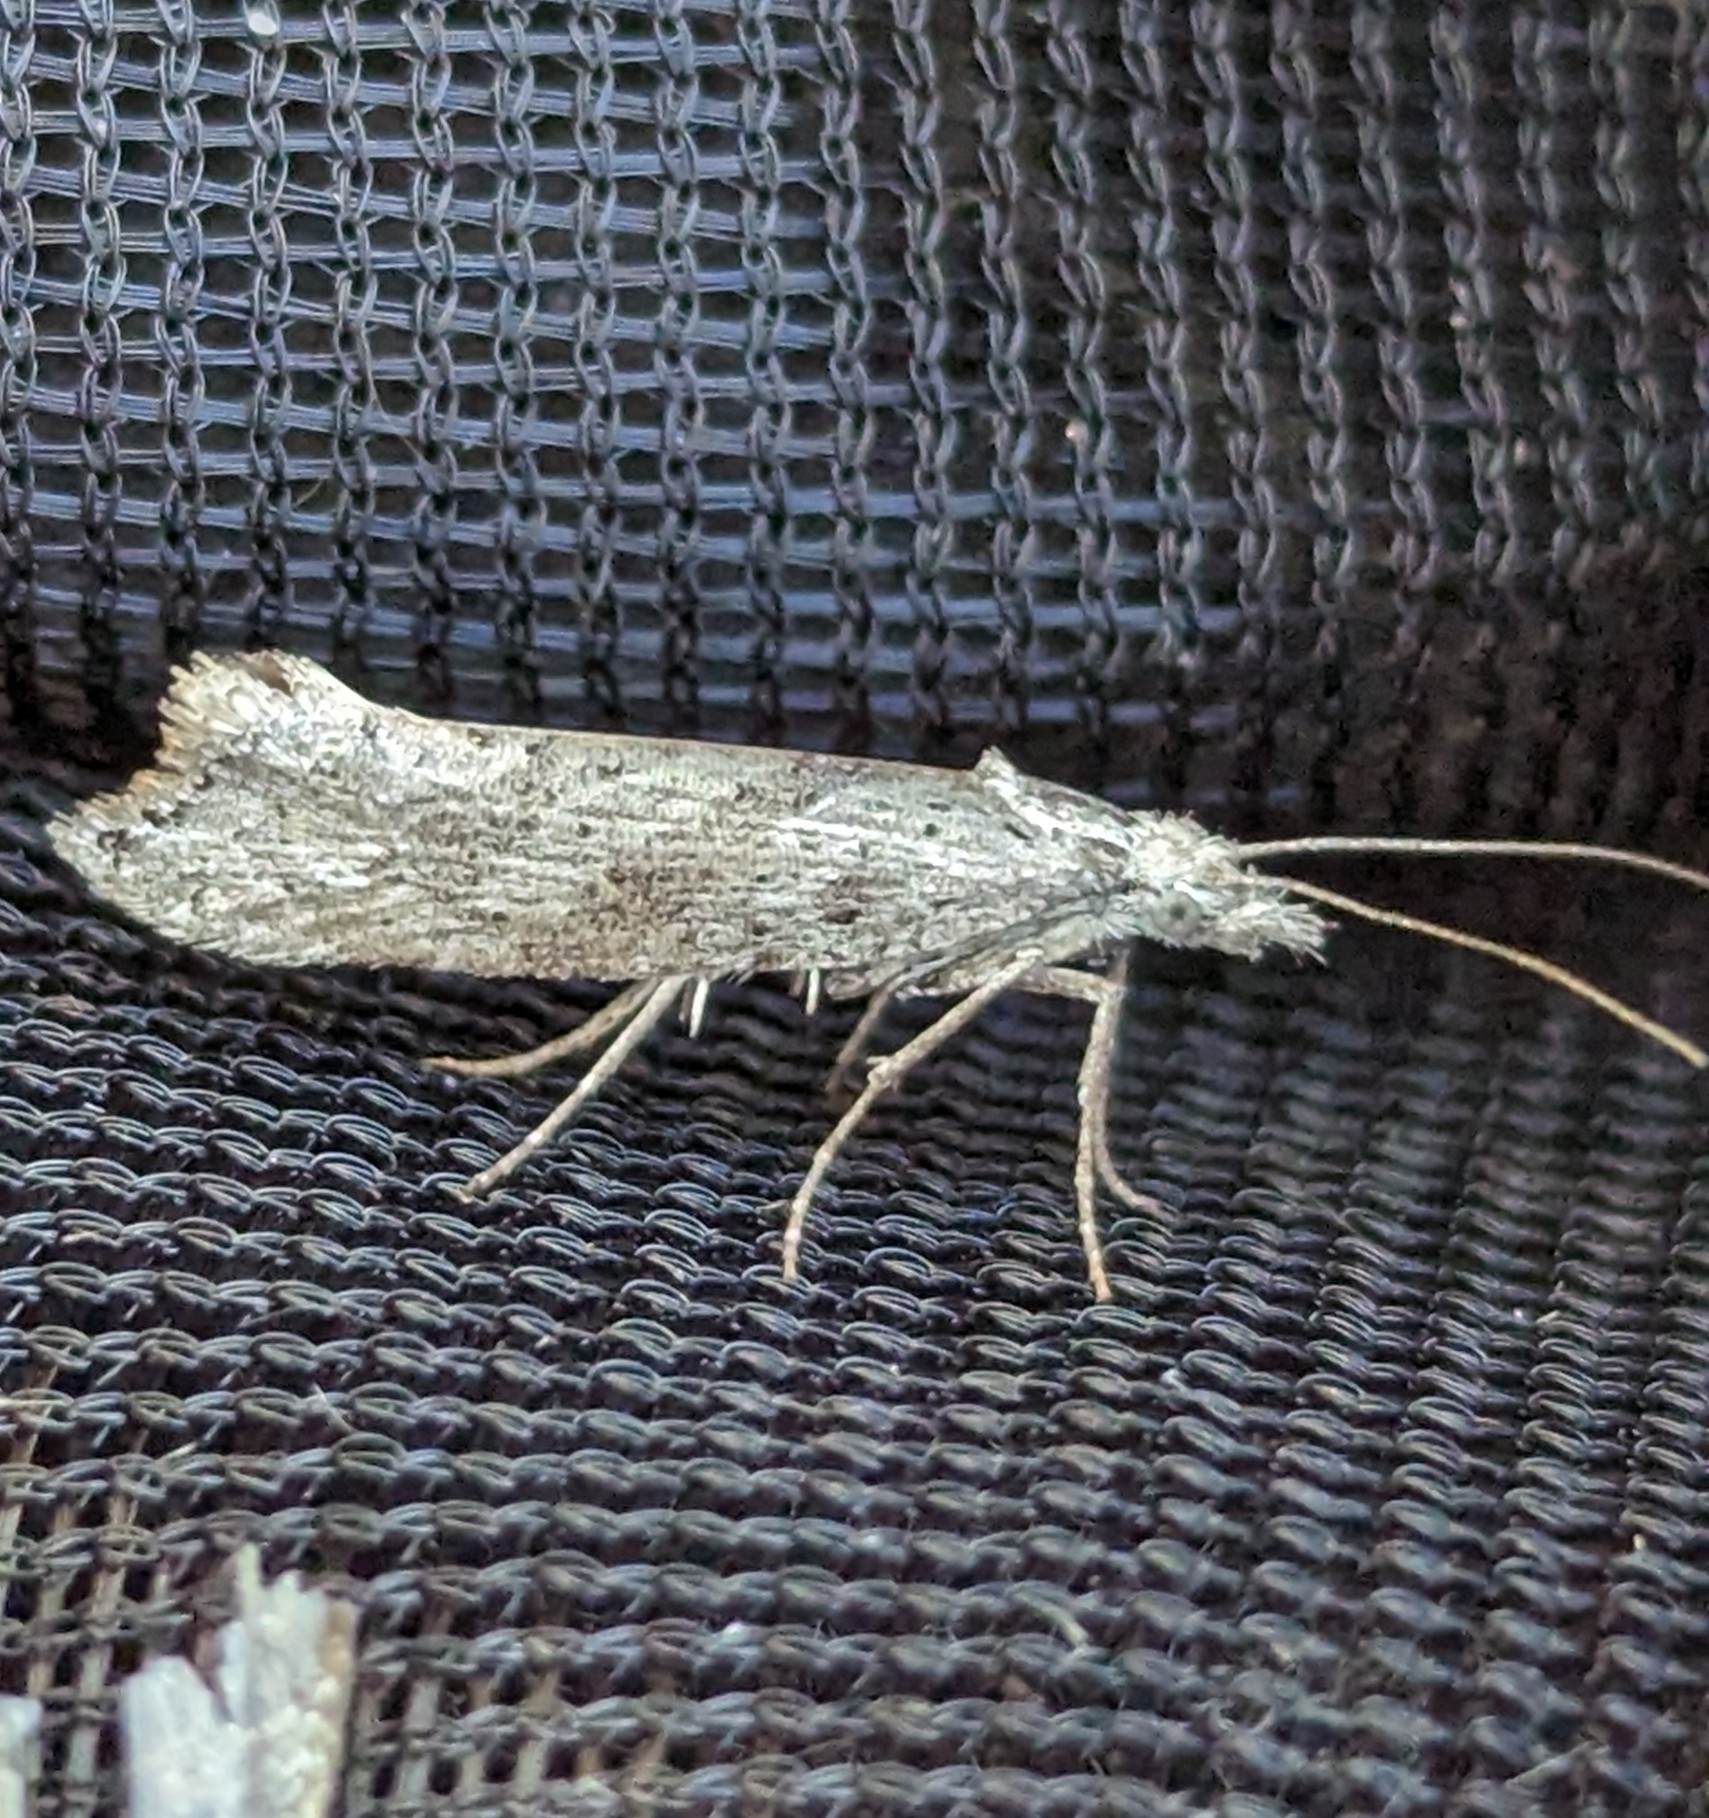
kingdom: Animalia
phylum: Arthropoda
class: Insecta
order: Lepidoptera
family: Ypsolophidae
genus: Ypsolopha
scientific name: Ypsolopha falciferella
